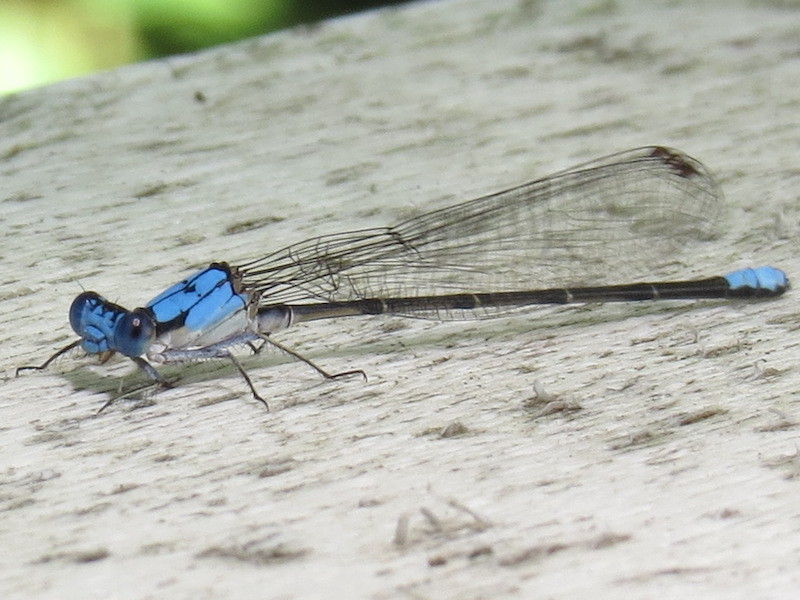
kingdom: Animalia
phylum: Arthropoda
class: Insecta
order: Odonata
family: Coenagrionidae
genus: Argia
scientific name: Argia apicalis
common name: Blue-fronted dancer
